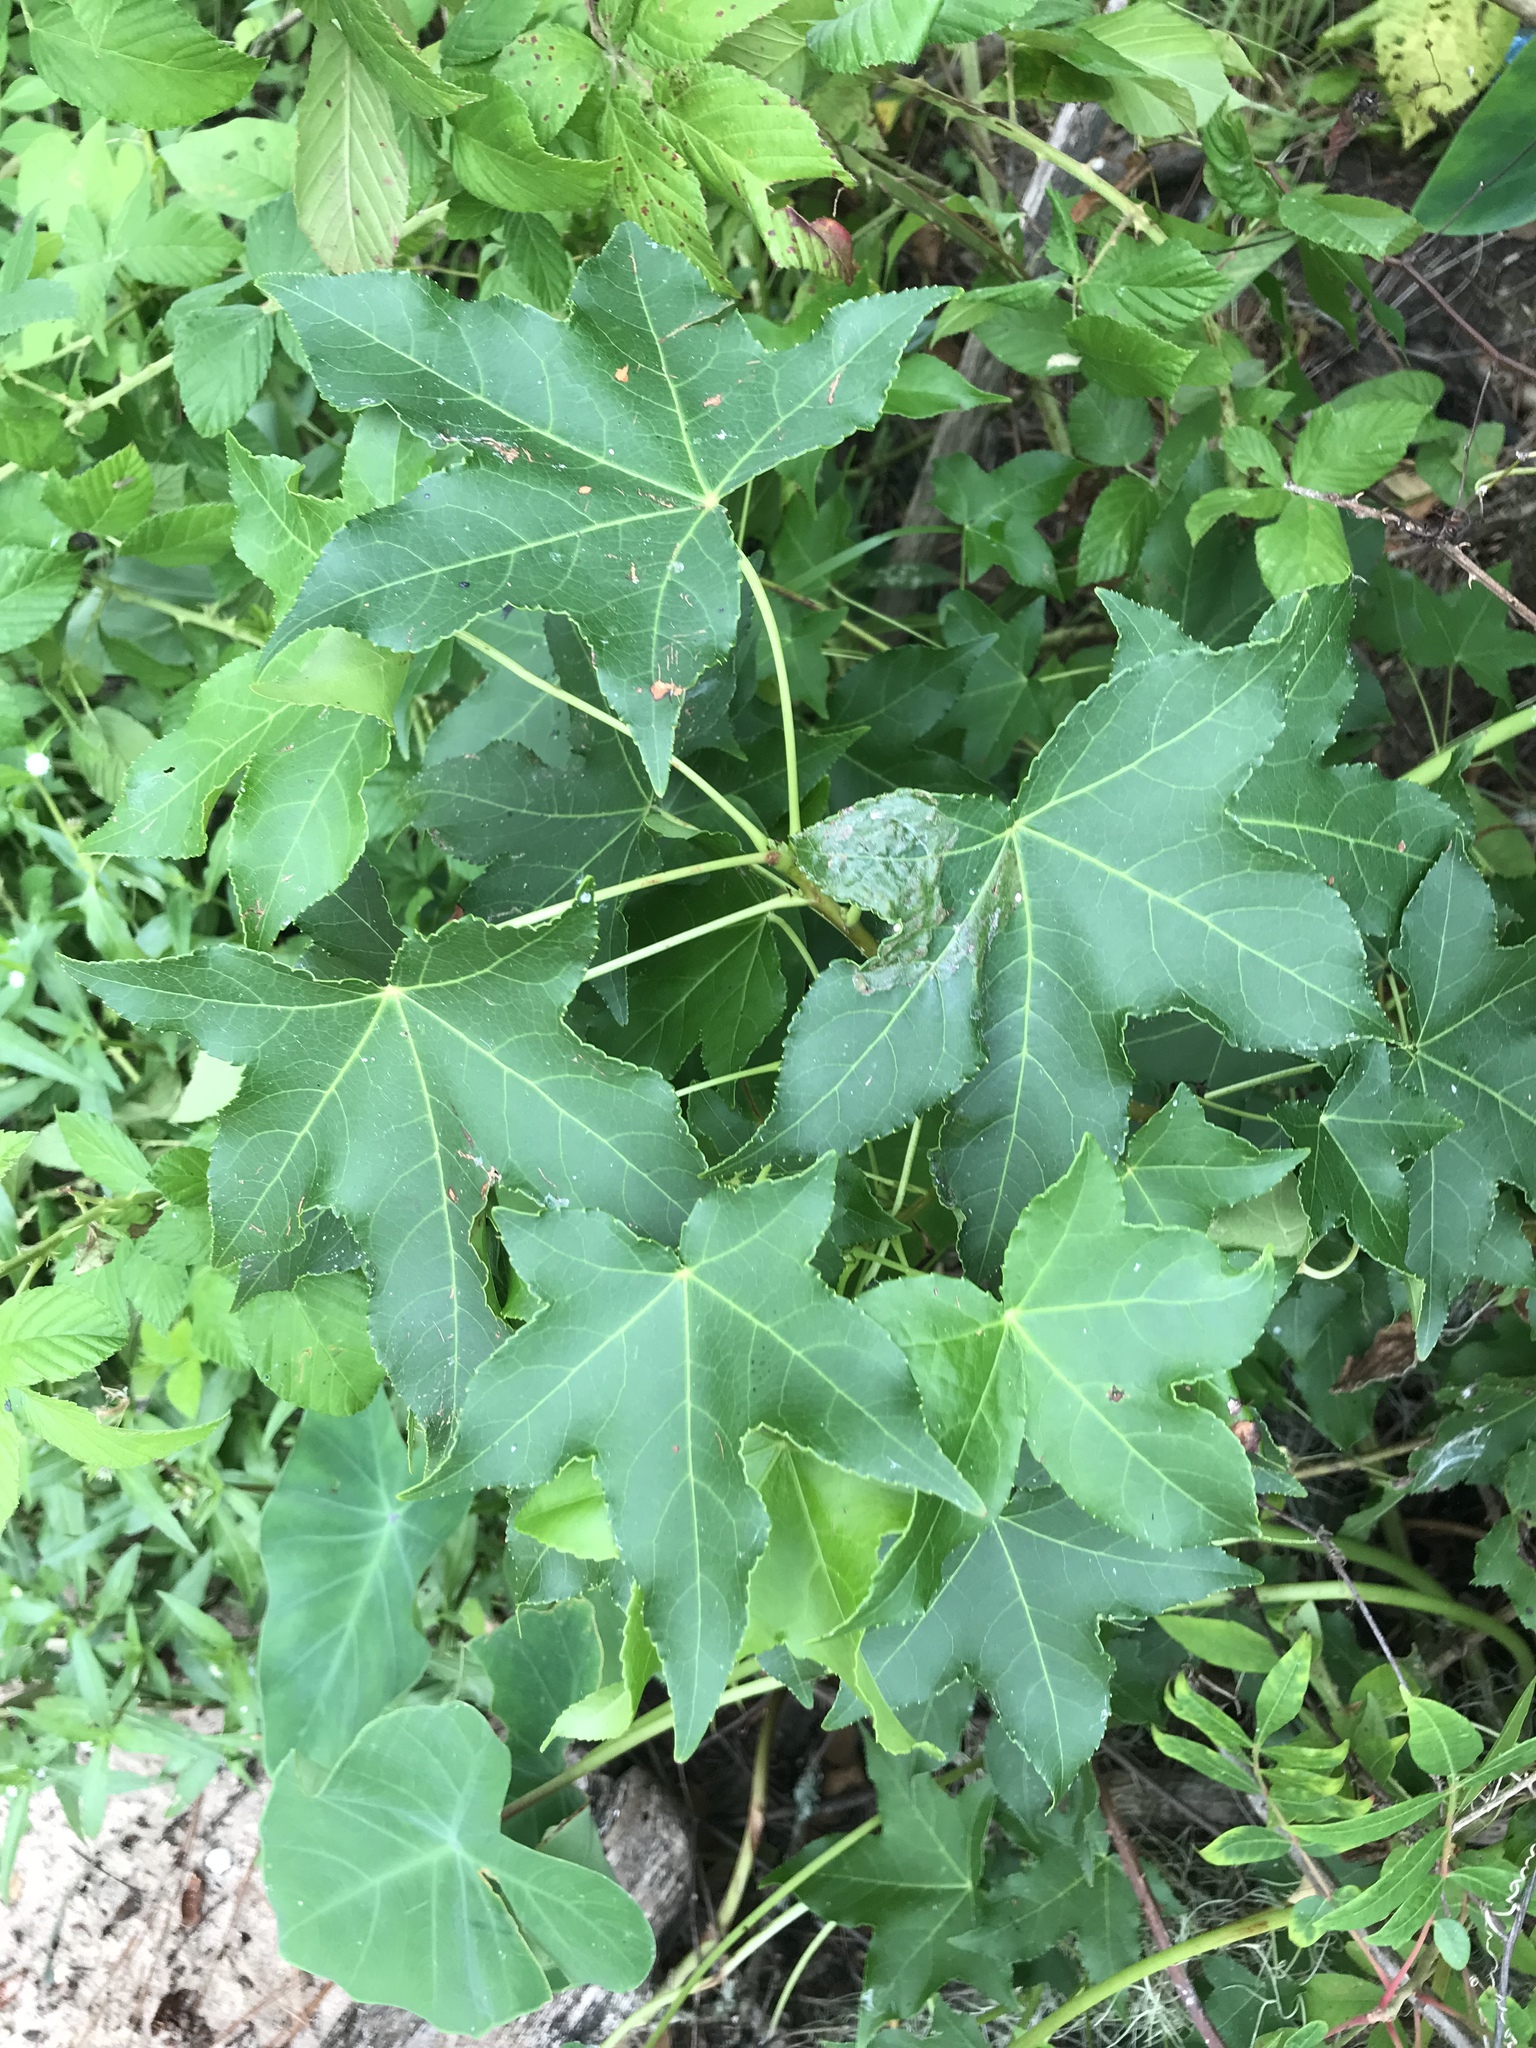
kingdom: Plantae
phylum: Tracheophyta
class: Magnoliopsida
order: Saxifragales
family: Altingiaceae
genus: Liquidambar
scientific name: Liquidambar styraciflua
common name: Sweet gum
